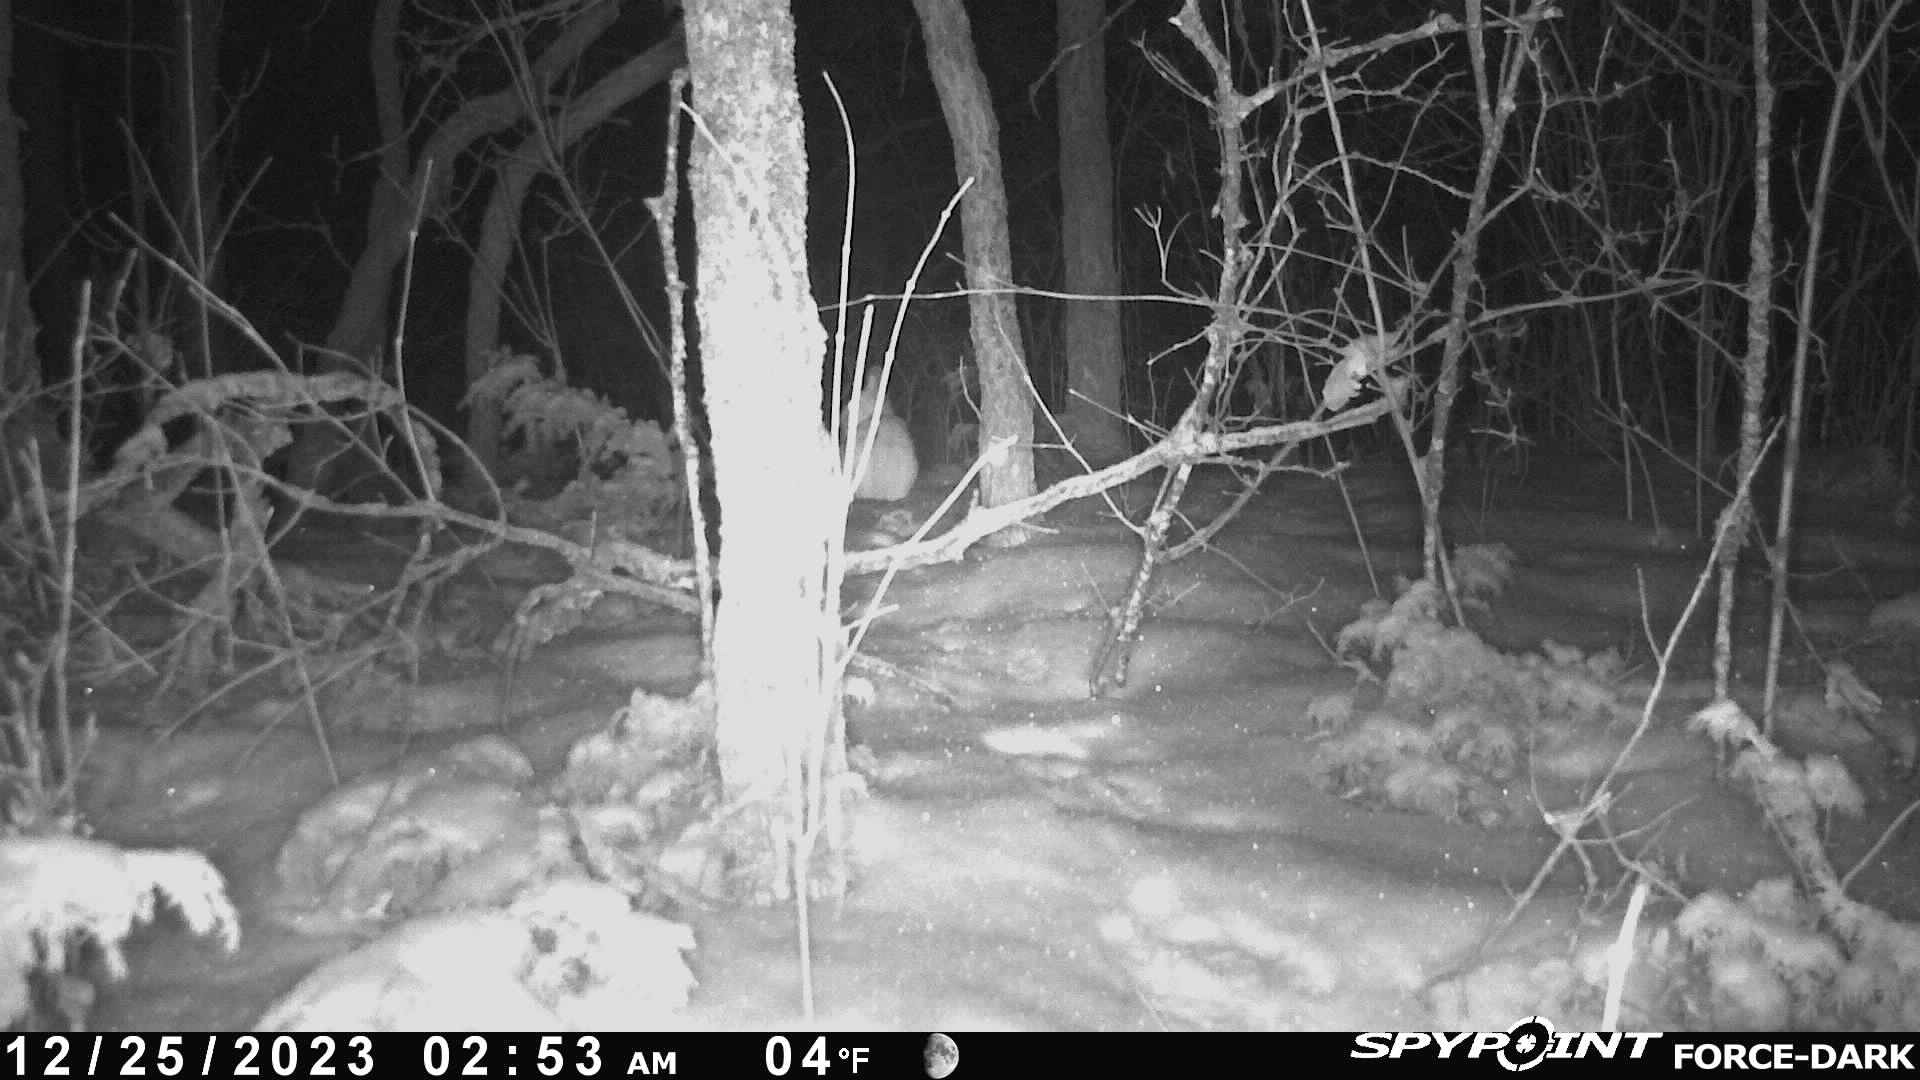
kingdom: Animalia
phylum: Chordata
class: Mammalia
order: Lagomorpha
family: Leporidae
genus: Lepus
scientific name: Lepus americanus
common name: Snowshoe hare
